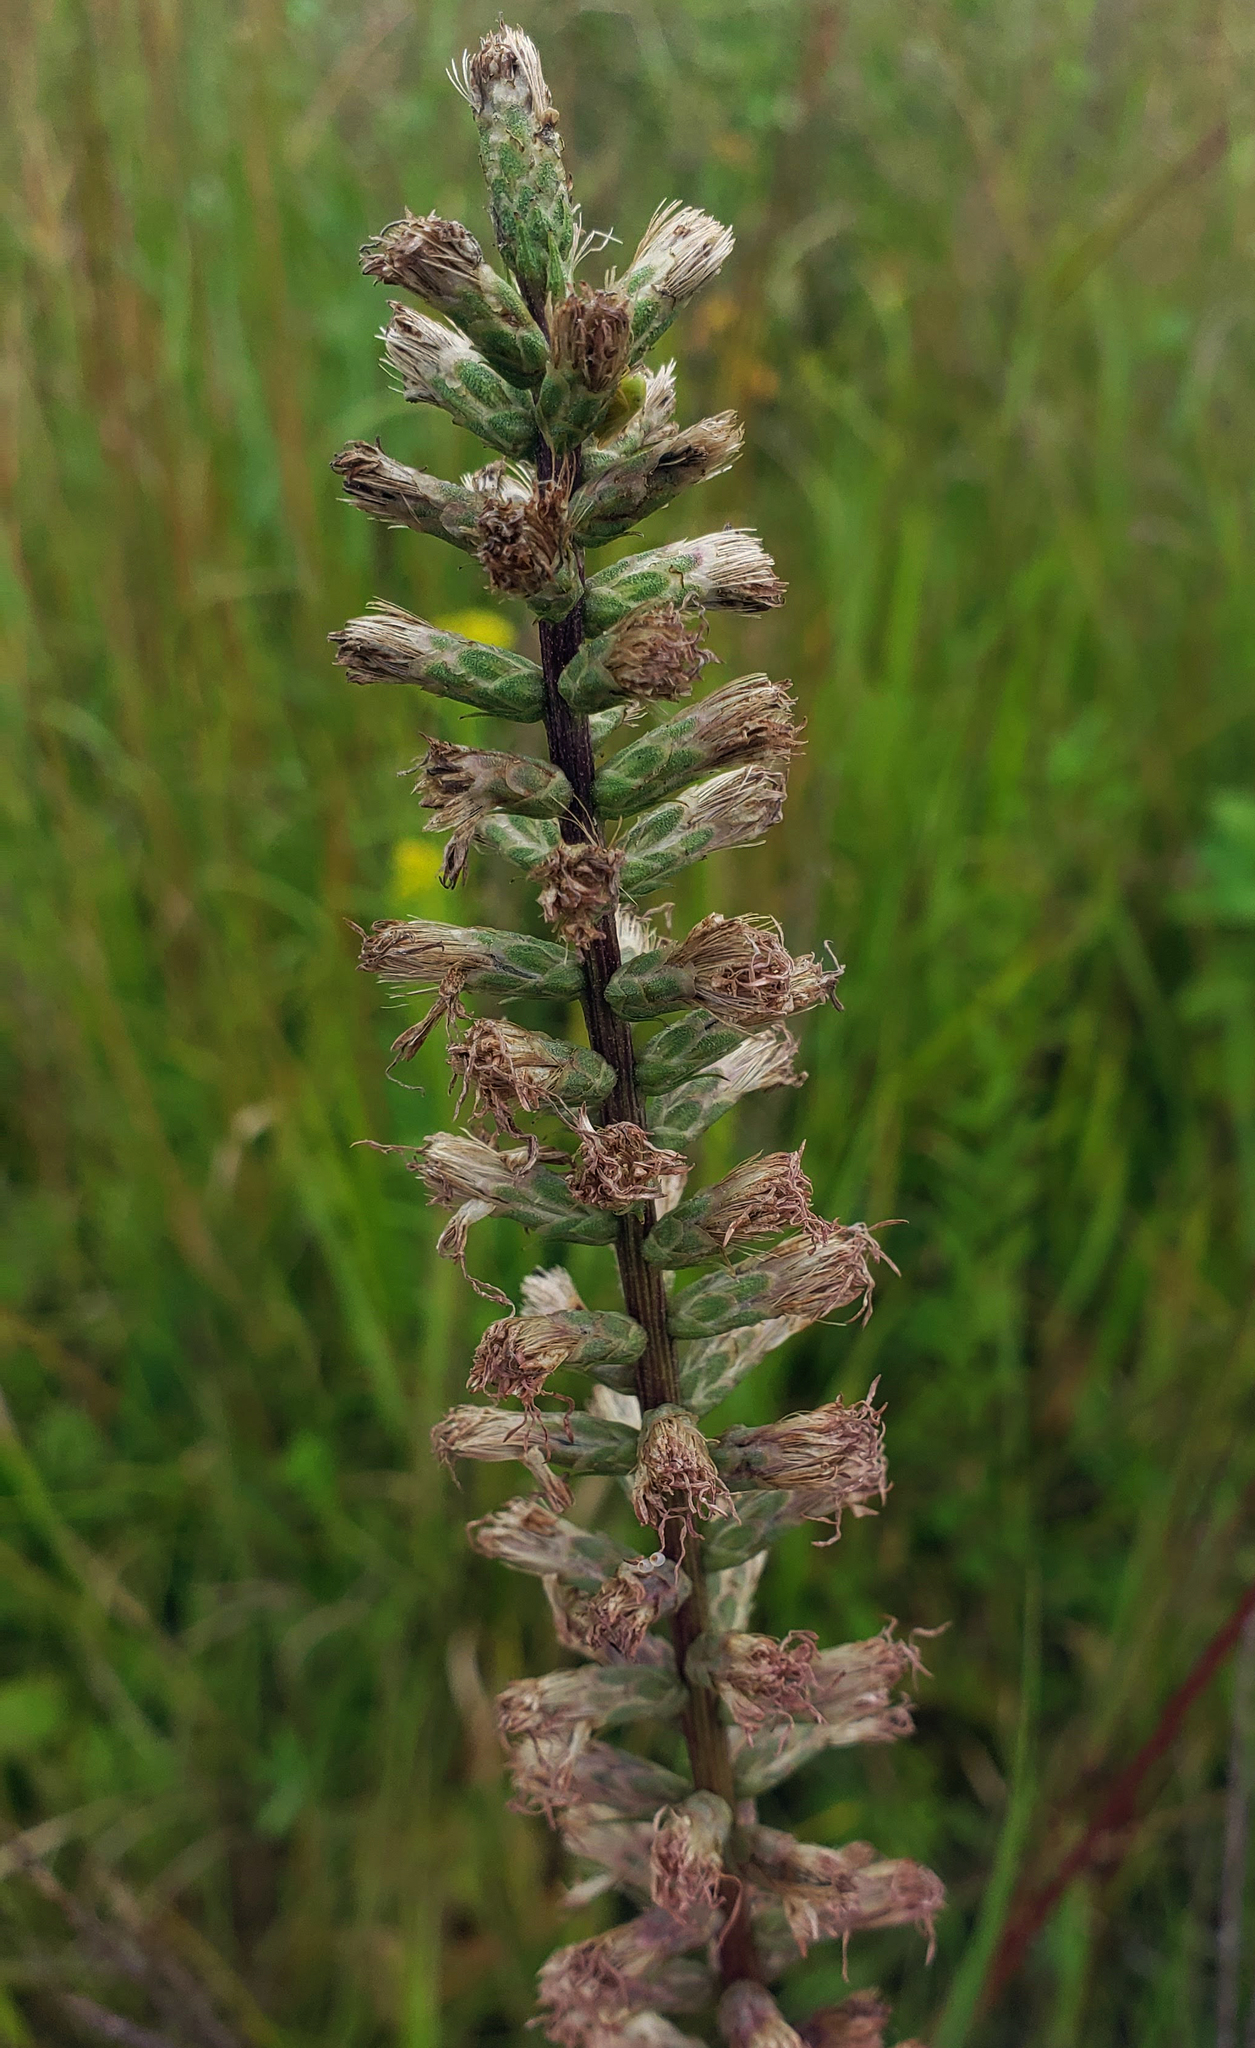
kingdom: Plantae
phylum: Tracheophyta
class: Magnoliopsida
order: Asterales
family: Asteraceae
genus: Liatris
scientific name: Liatris spicata
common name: Florist gayfeather
